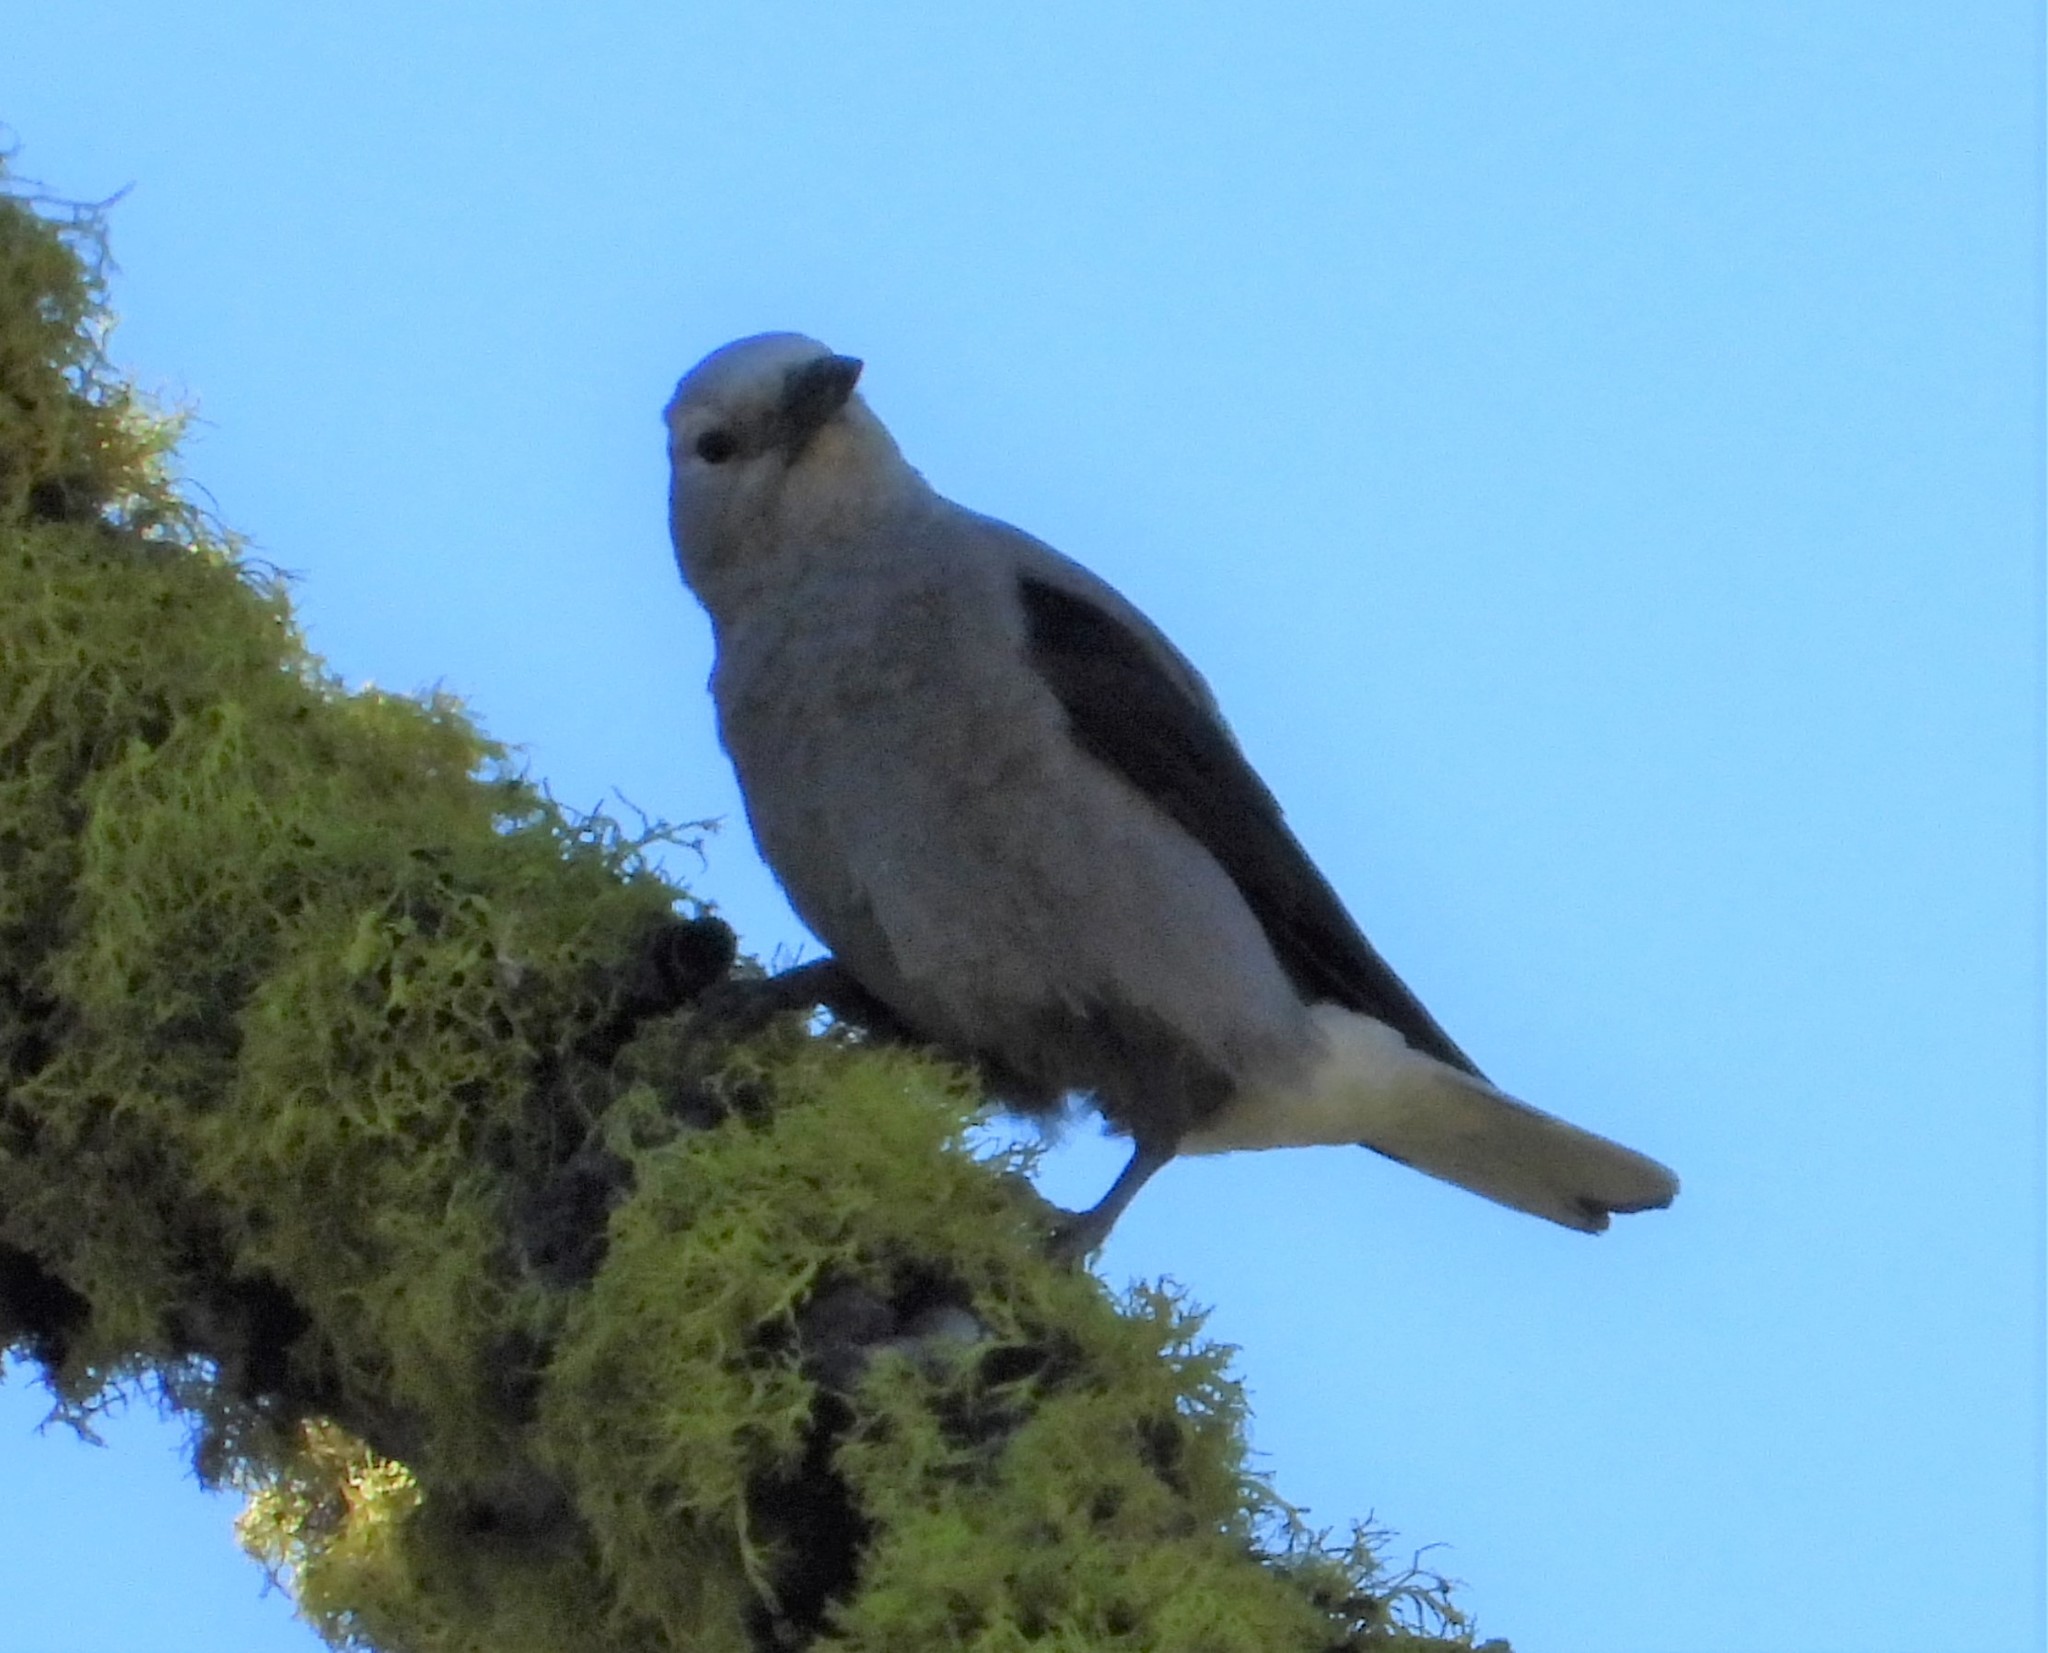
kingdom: Animalia
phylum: Chordata
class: Aves
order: Passeriformes
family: Corvidae
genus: Nucifraga
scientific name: Nucifraga columbiana
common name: Clark's nutcracker
